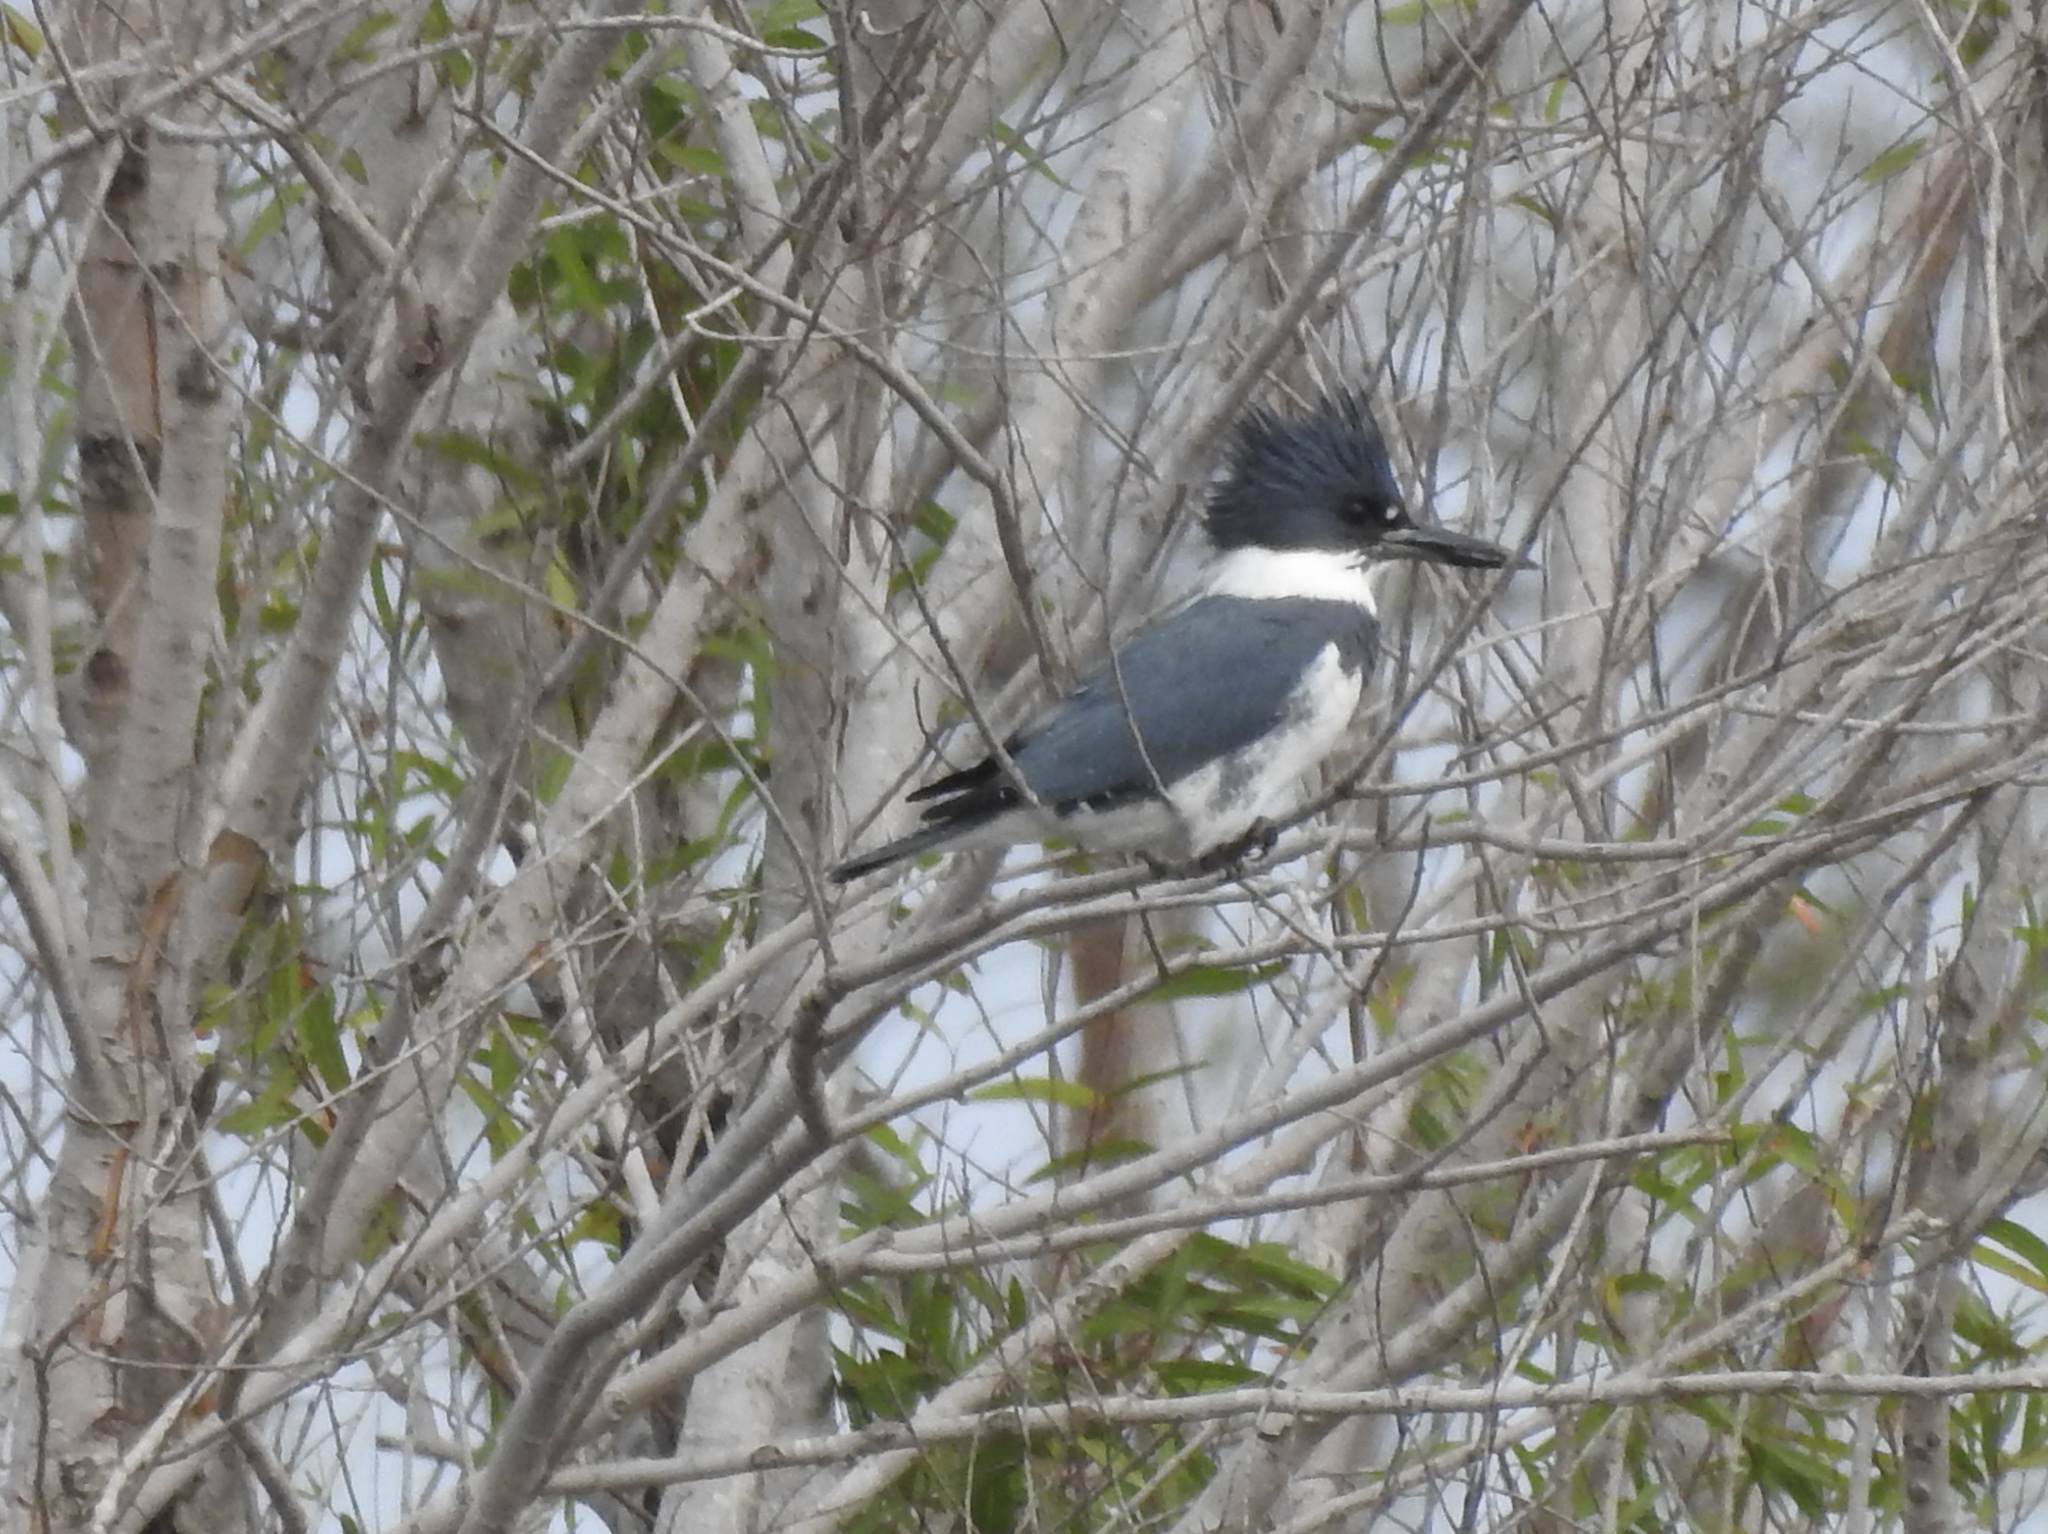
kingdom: Animalia
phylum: Chordata
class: Aves
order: Coraciiformes
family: Alcedinidae
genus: Megaceryle
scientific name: Megaceryle alcyon
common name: Belted kingfisher
